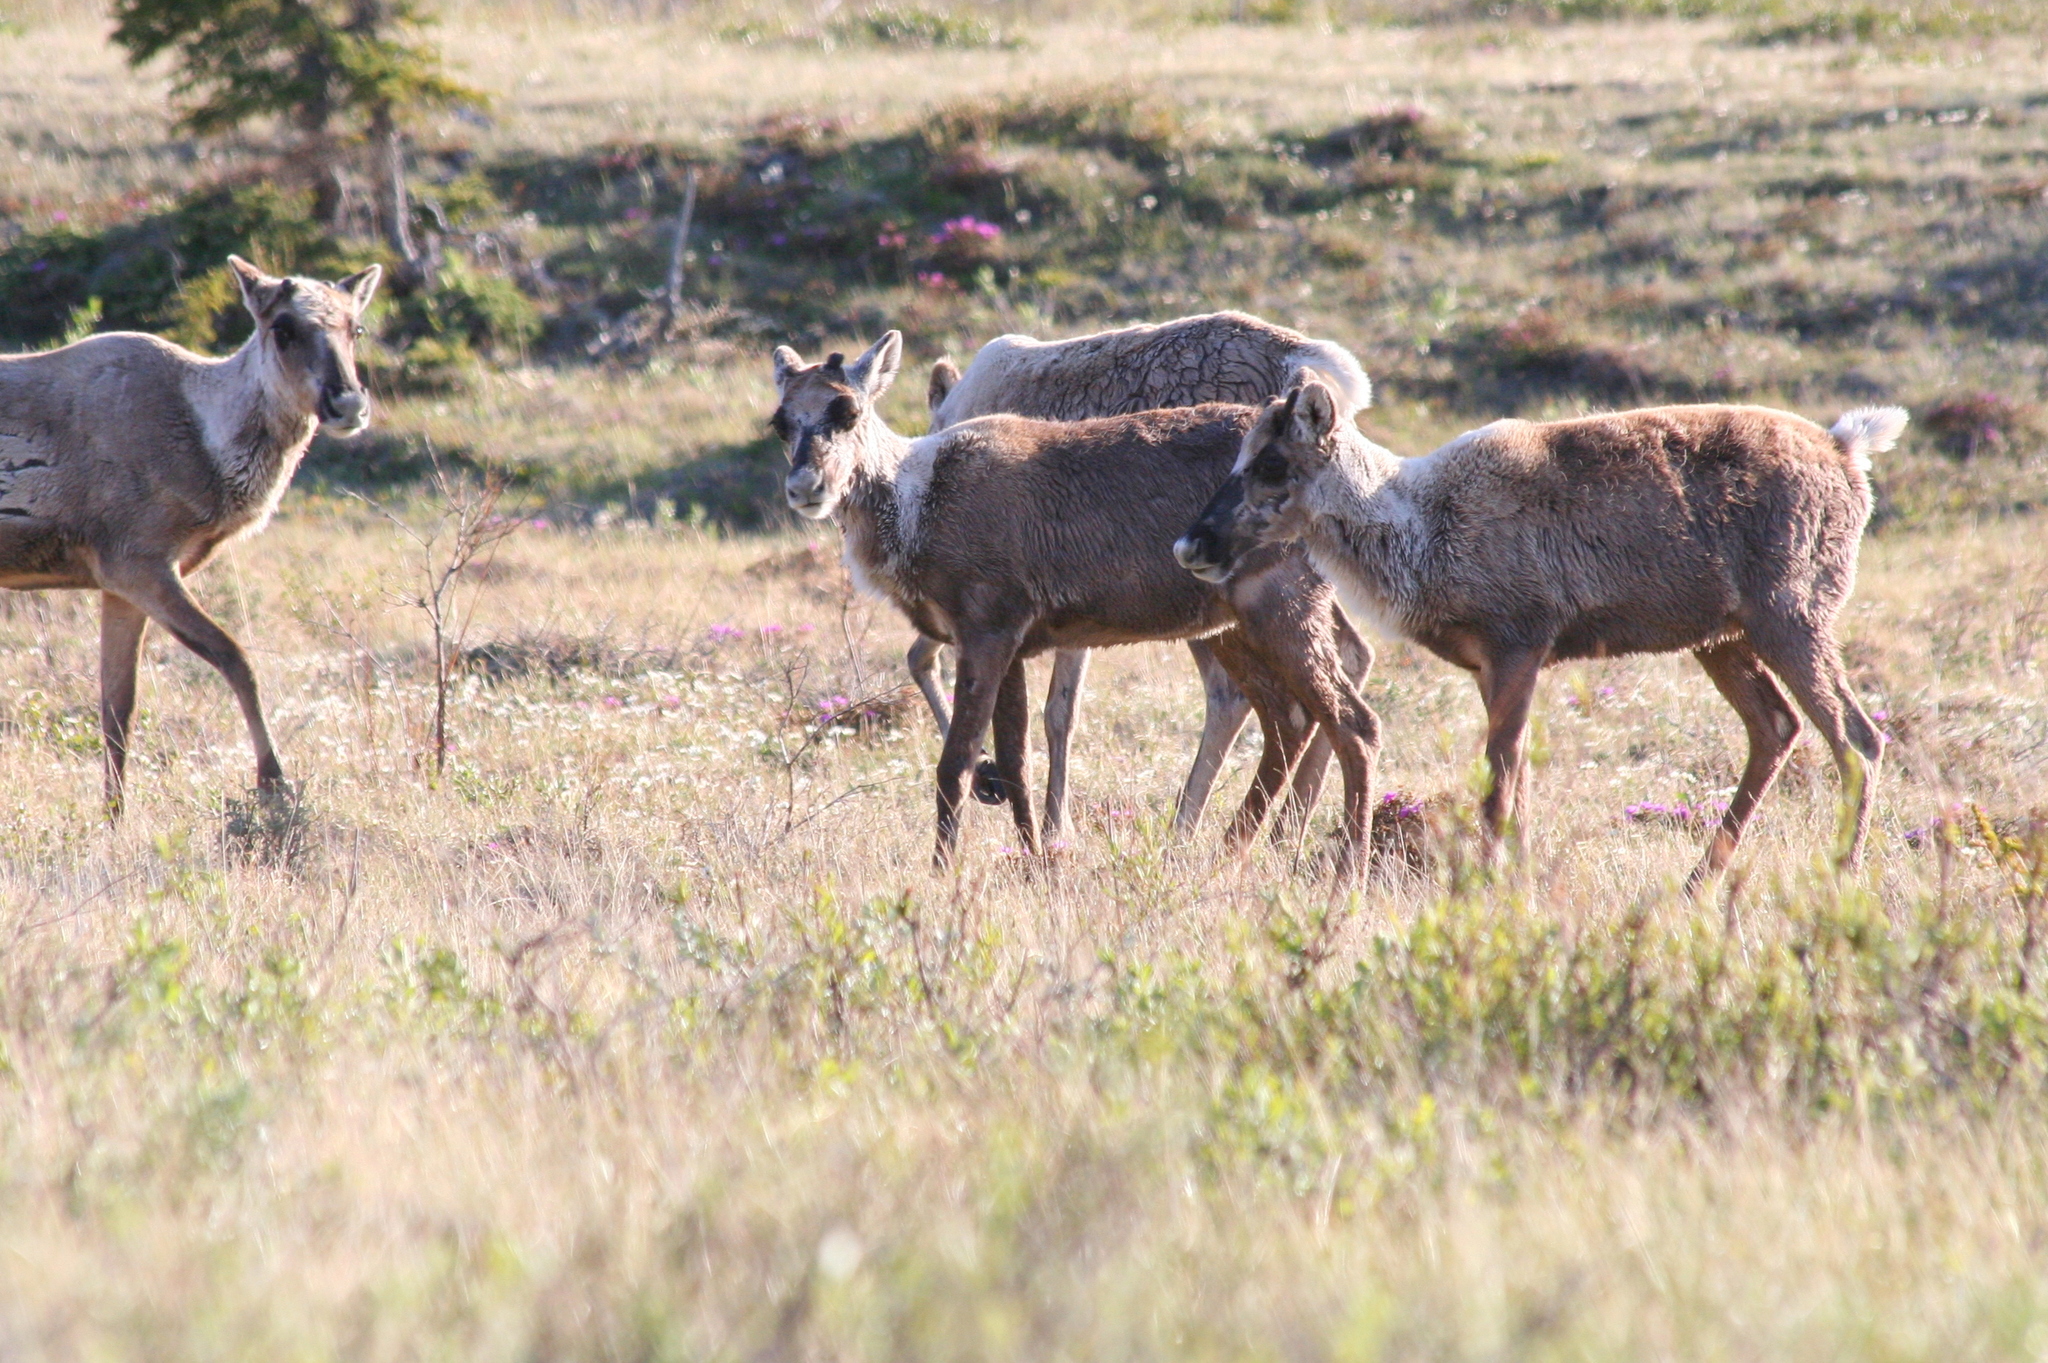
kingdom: Animalia
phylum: Chordata
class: Mammalia
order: Artiodactyla
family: Cervidae
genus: Rangifer
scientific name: Rangifer tarandus
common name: Reindeer
